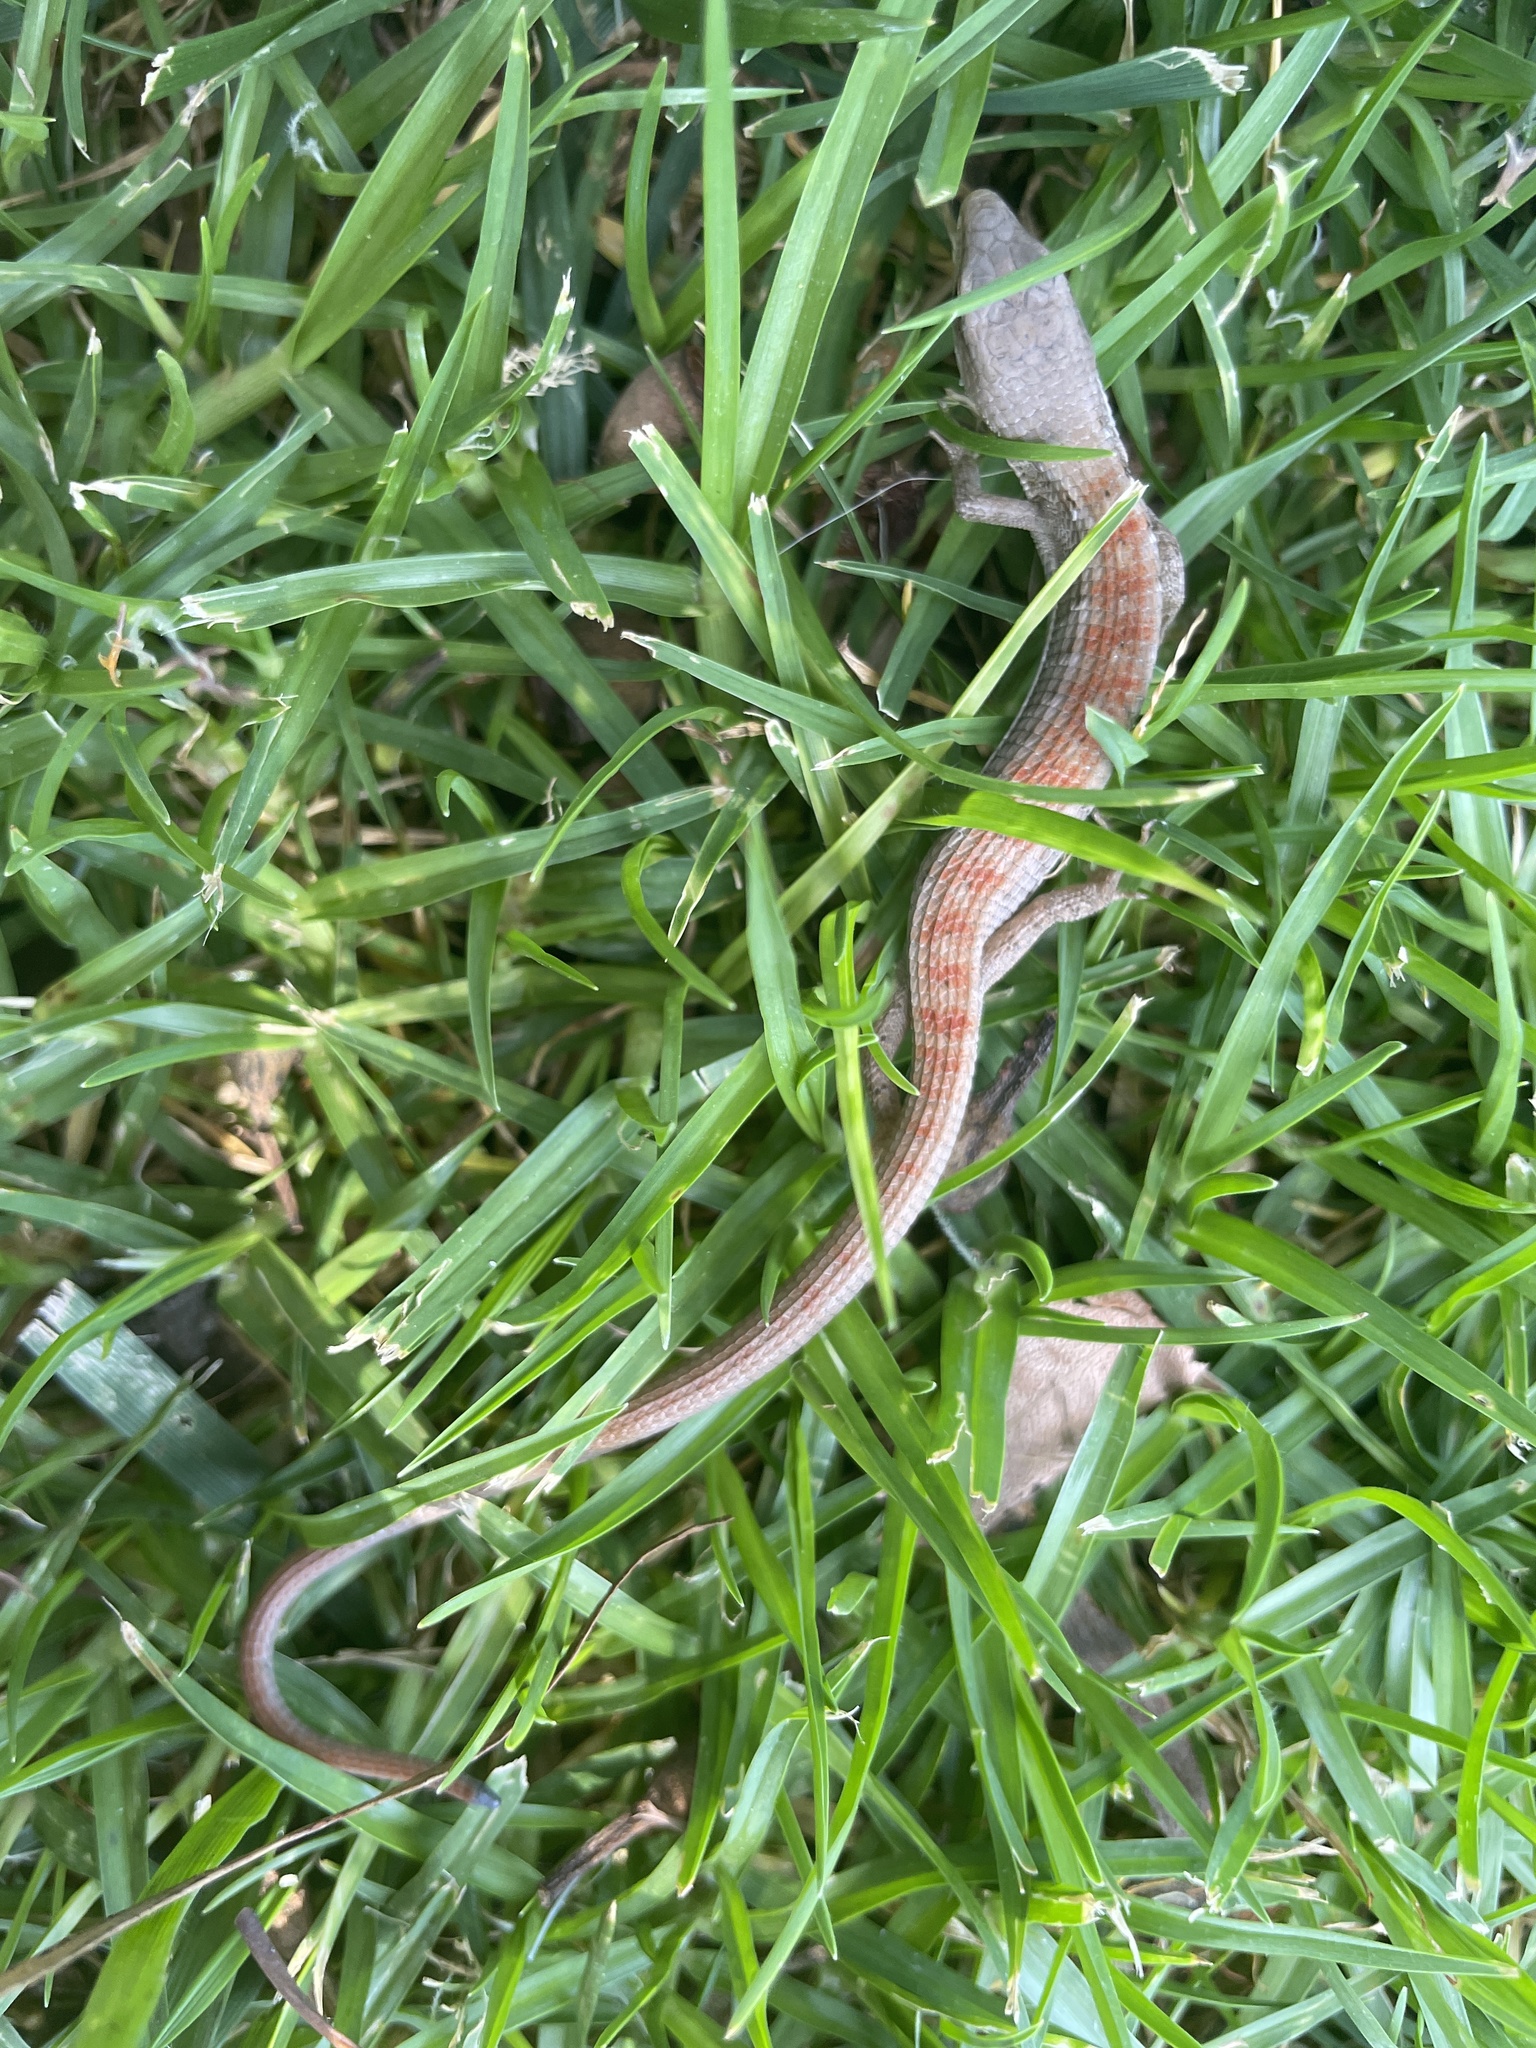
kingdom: Animalia
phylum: Chordata
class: Squamata
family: Anguidae
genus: Elgaria
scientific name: Elgaria multicarinata
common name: Southern alligator lizard
